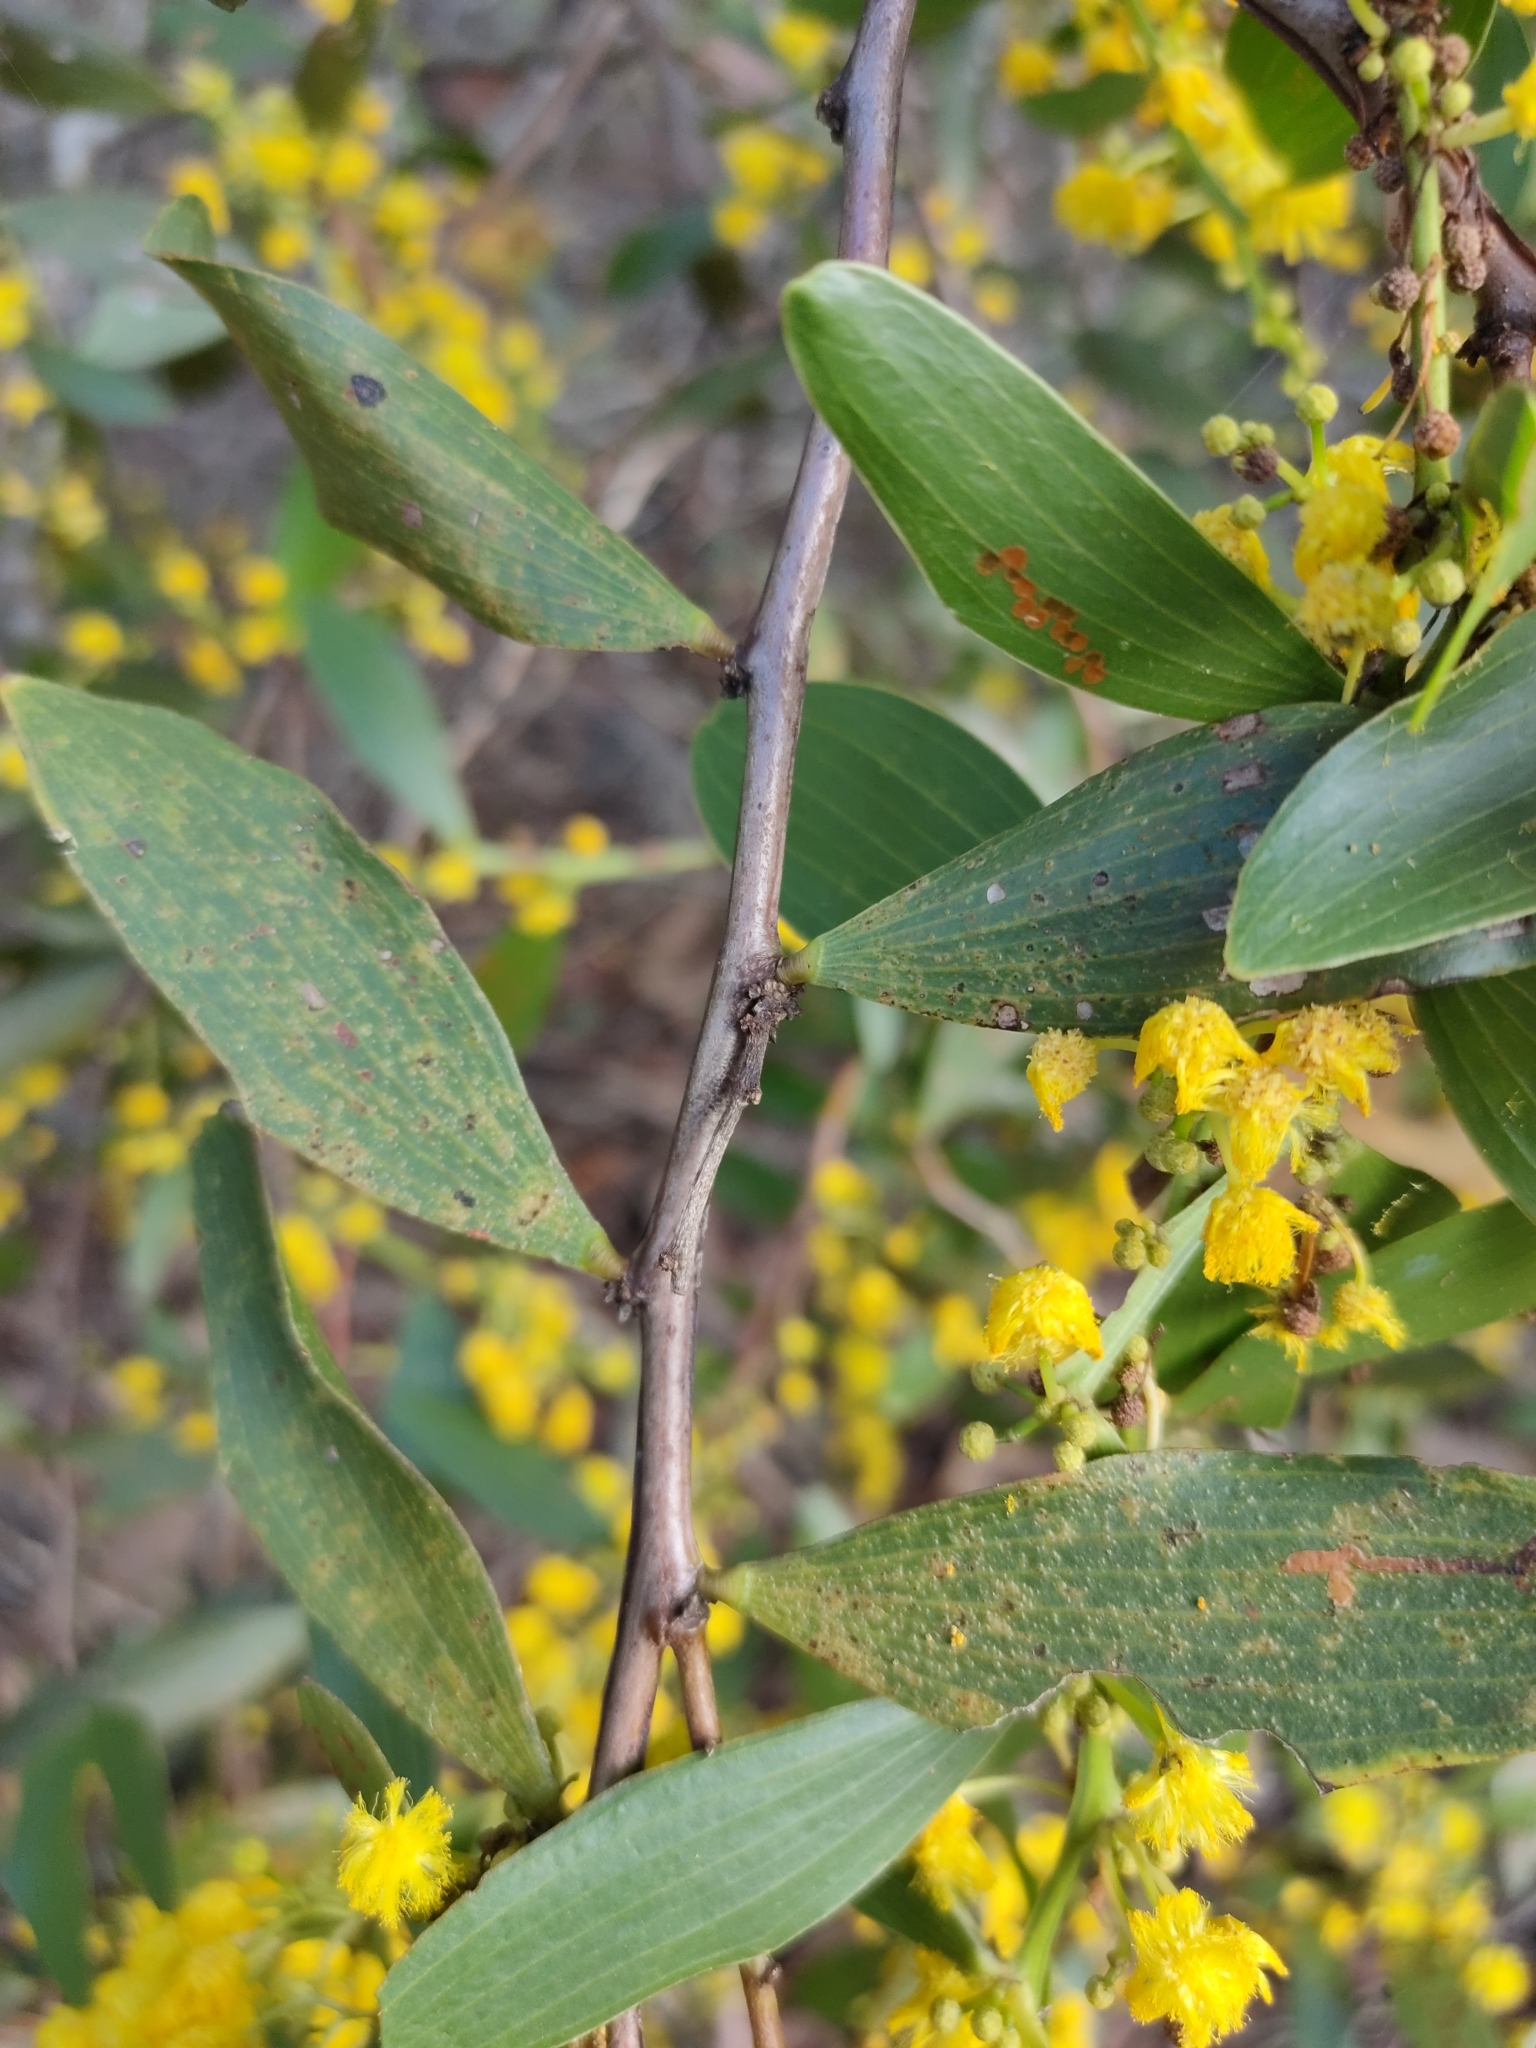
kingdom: Plantae
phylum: Tracheophyta
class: Magnoliopsida
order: Fabales
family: Fabaceae
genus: Acacia
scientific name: Acacia complanata
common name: Flat-stemmed wattle
